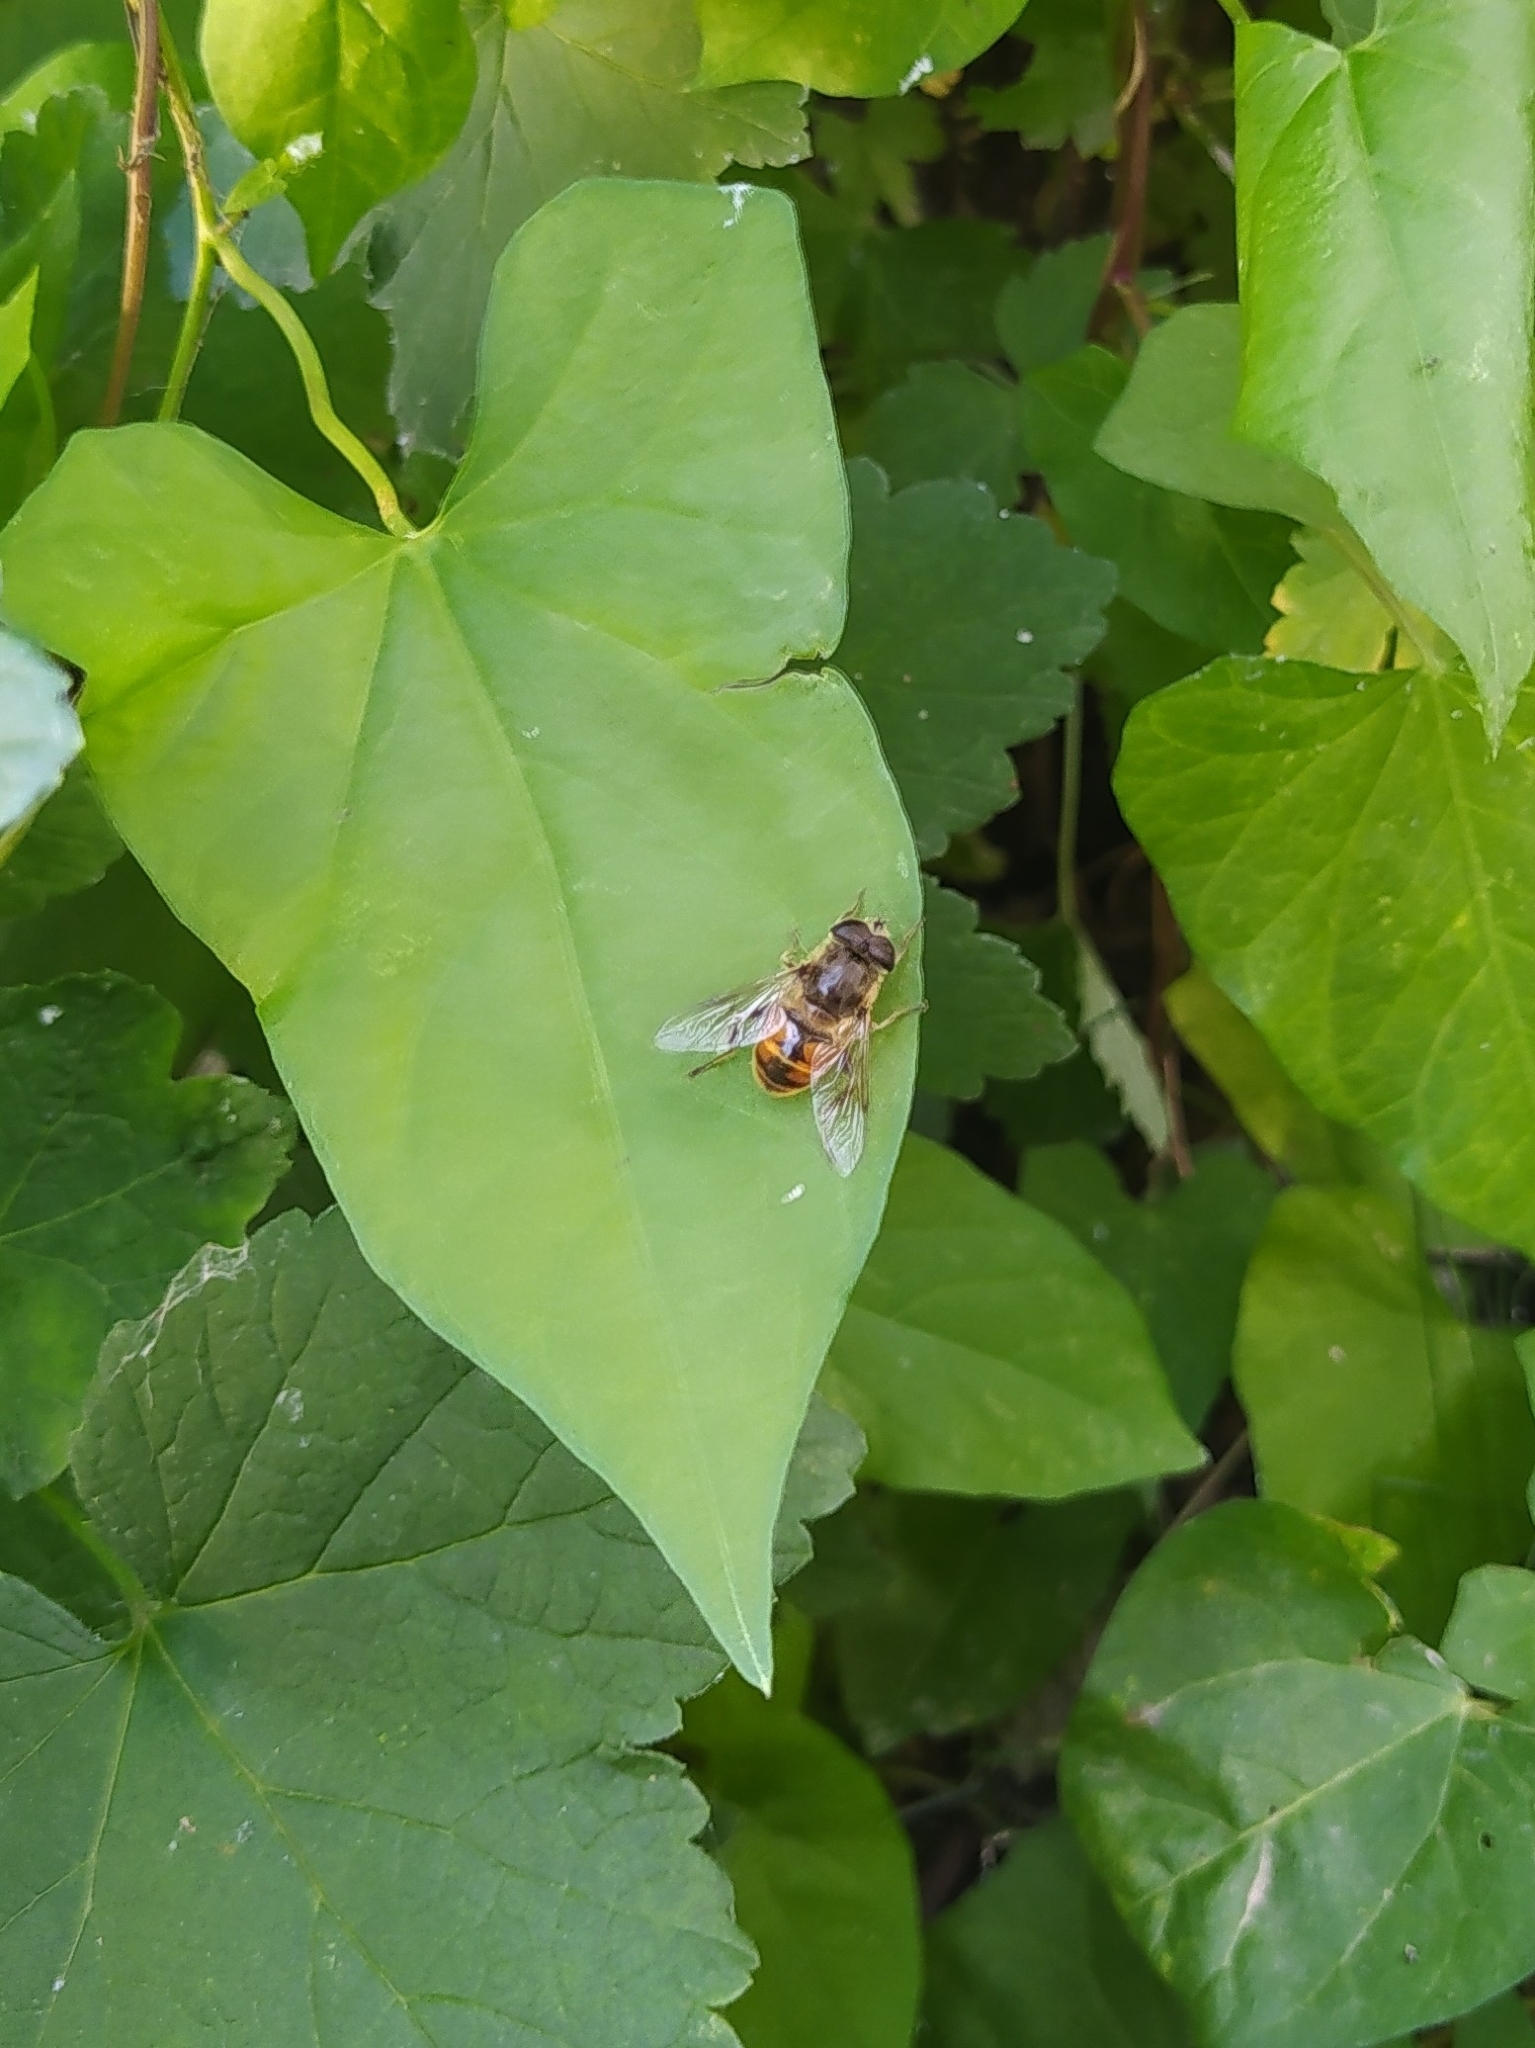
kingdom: Animalia
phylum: Arthropoda
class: Insecta
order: Diptera
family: Syrphidae
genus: Eristalis
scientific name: Eristalis tenax
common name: Drone fly
